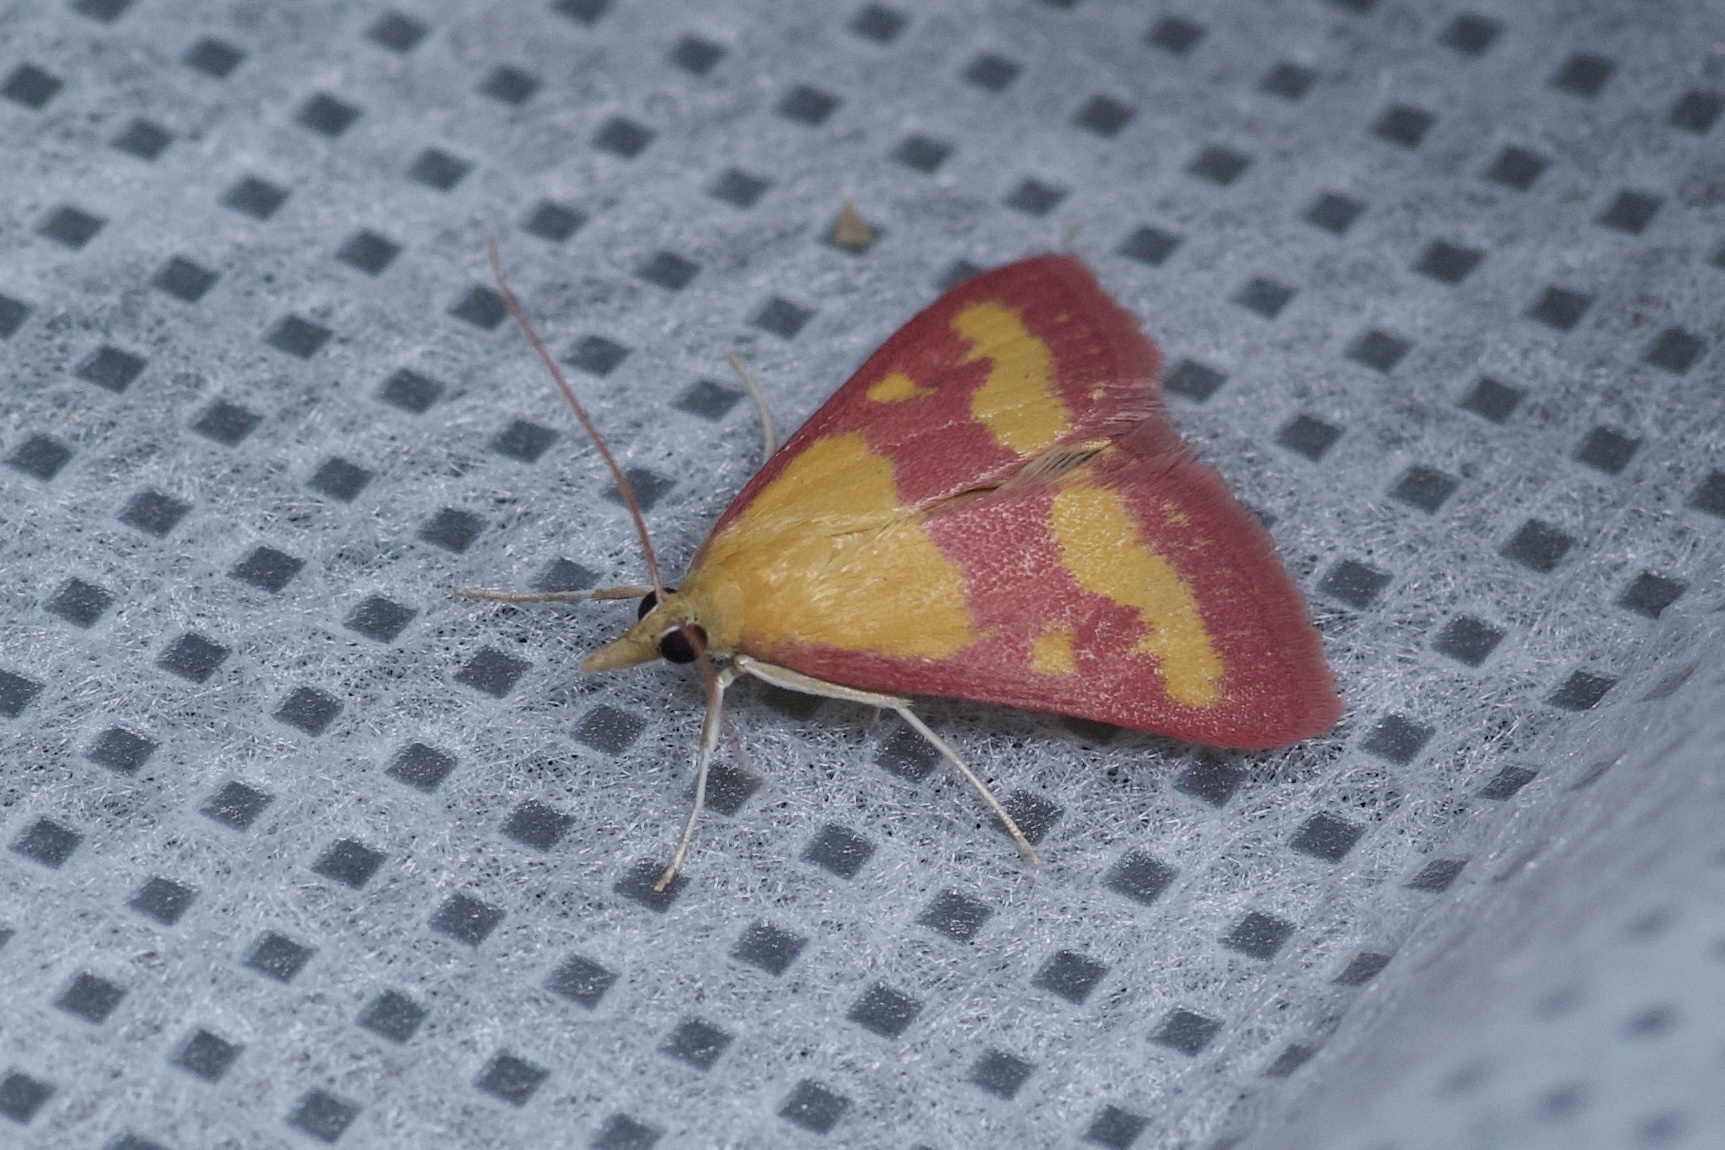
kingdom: Animalia
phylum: Arthropoda
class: Insecta
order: Lepidoptera
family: Crambidae
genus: Pyrausta
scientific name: Pyrausta laticlavia
